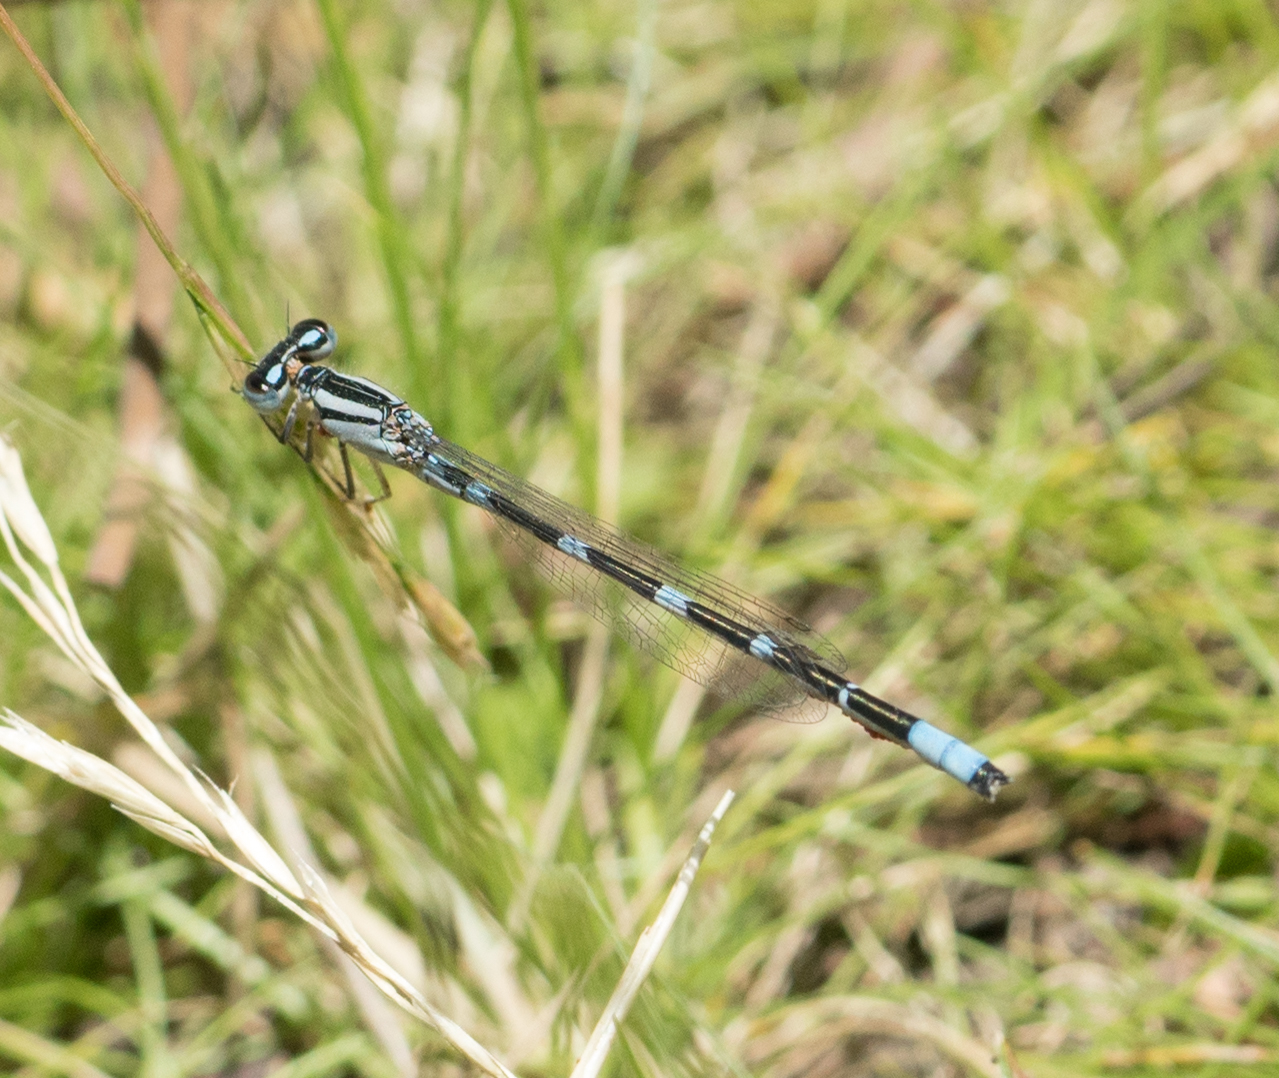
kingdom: Animalia
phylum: Arthropoda
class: Insecta
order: Odonata
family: Coenagrionidae
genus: Enallagma
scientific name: Enallagma carunculatum
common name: Tule bluet
